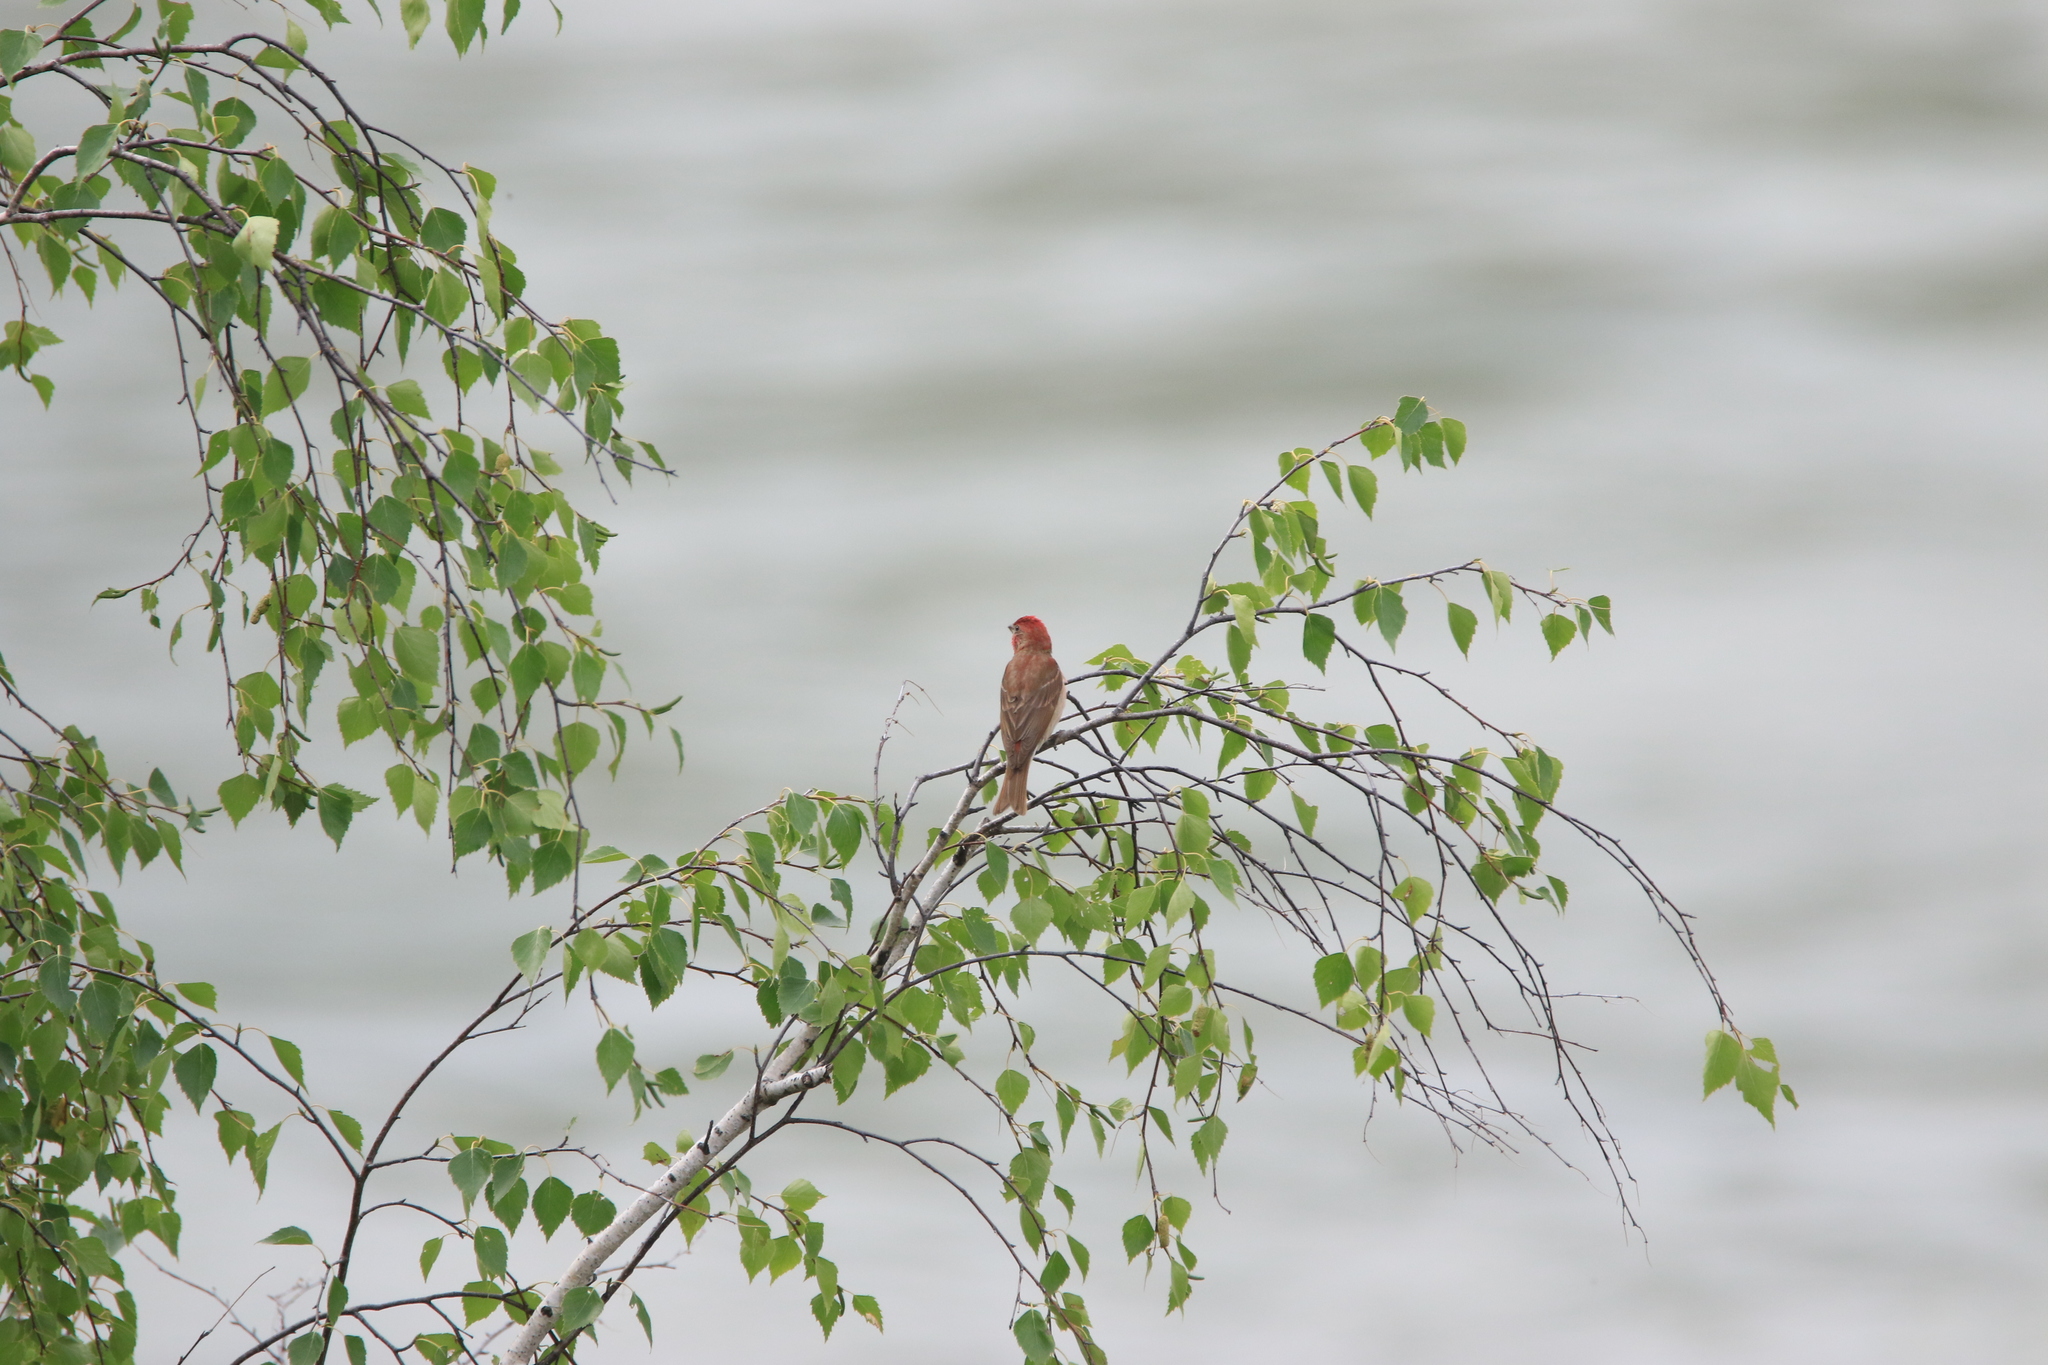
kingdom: Animalia
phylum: Chordata
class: Aves
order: Passeriformes
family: Fringillidae
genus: Carpodacus
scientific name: Carpodacus erythrinus
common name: Common rosefinch
